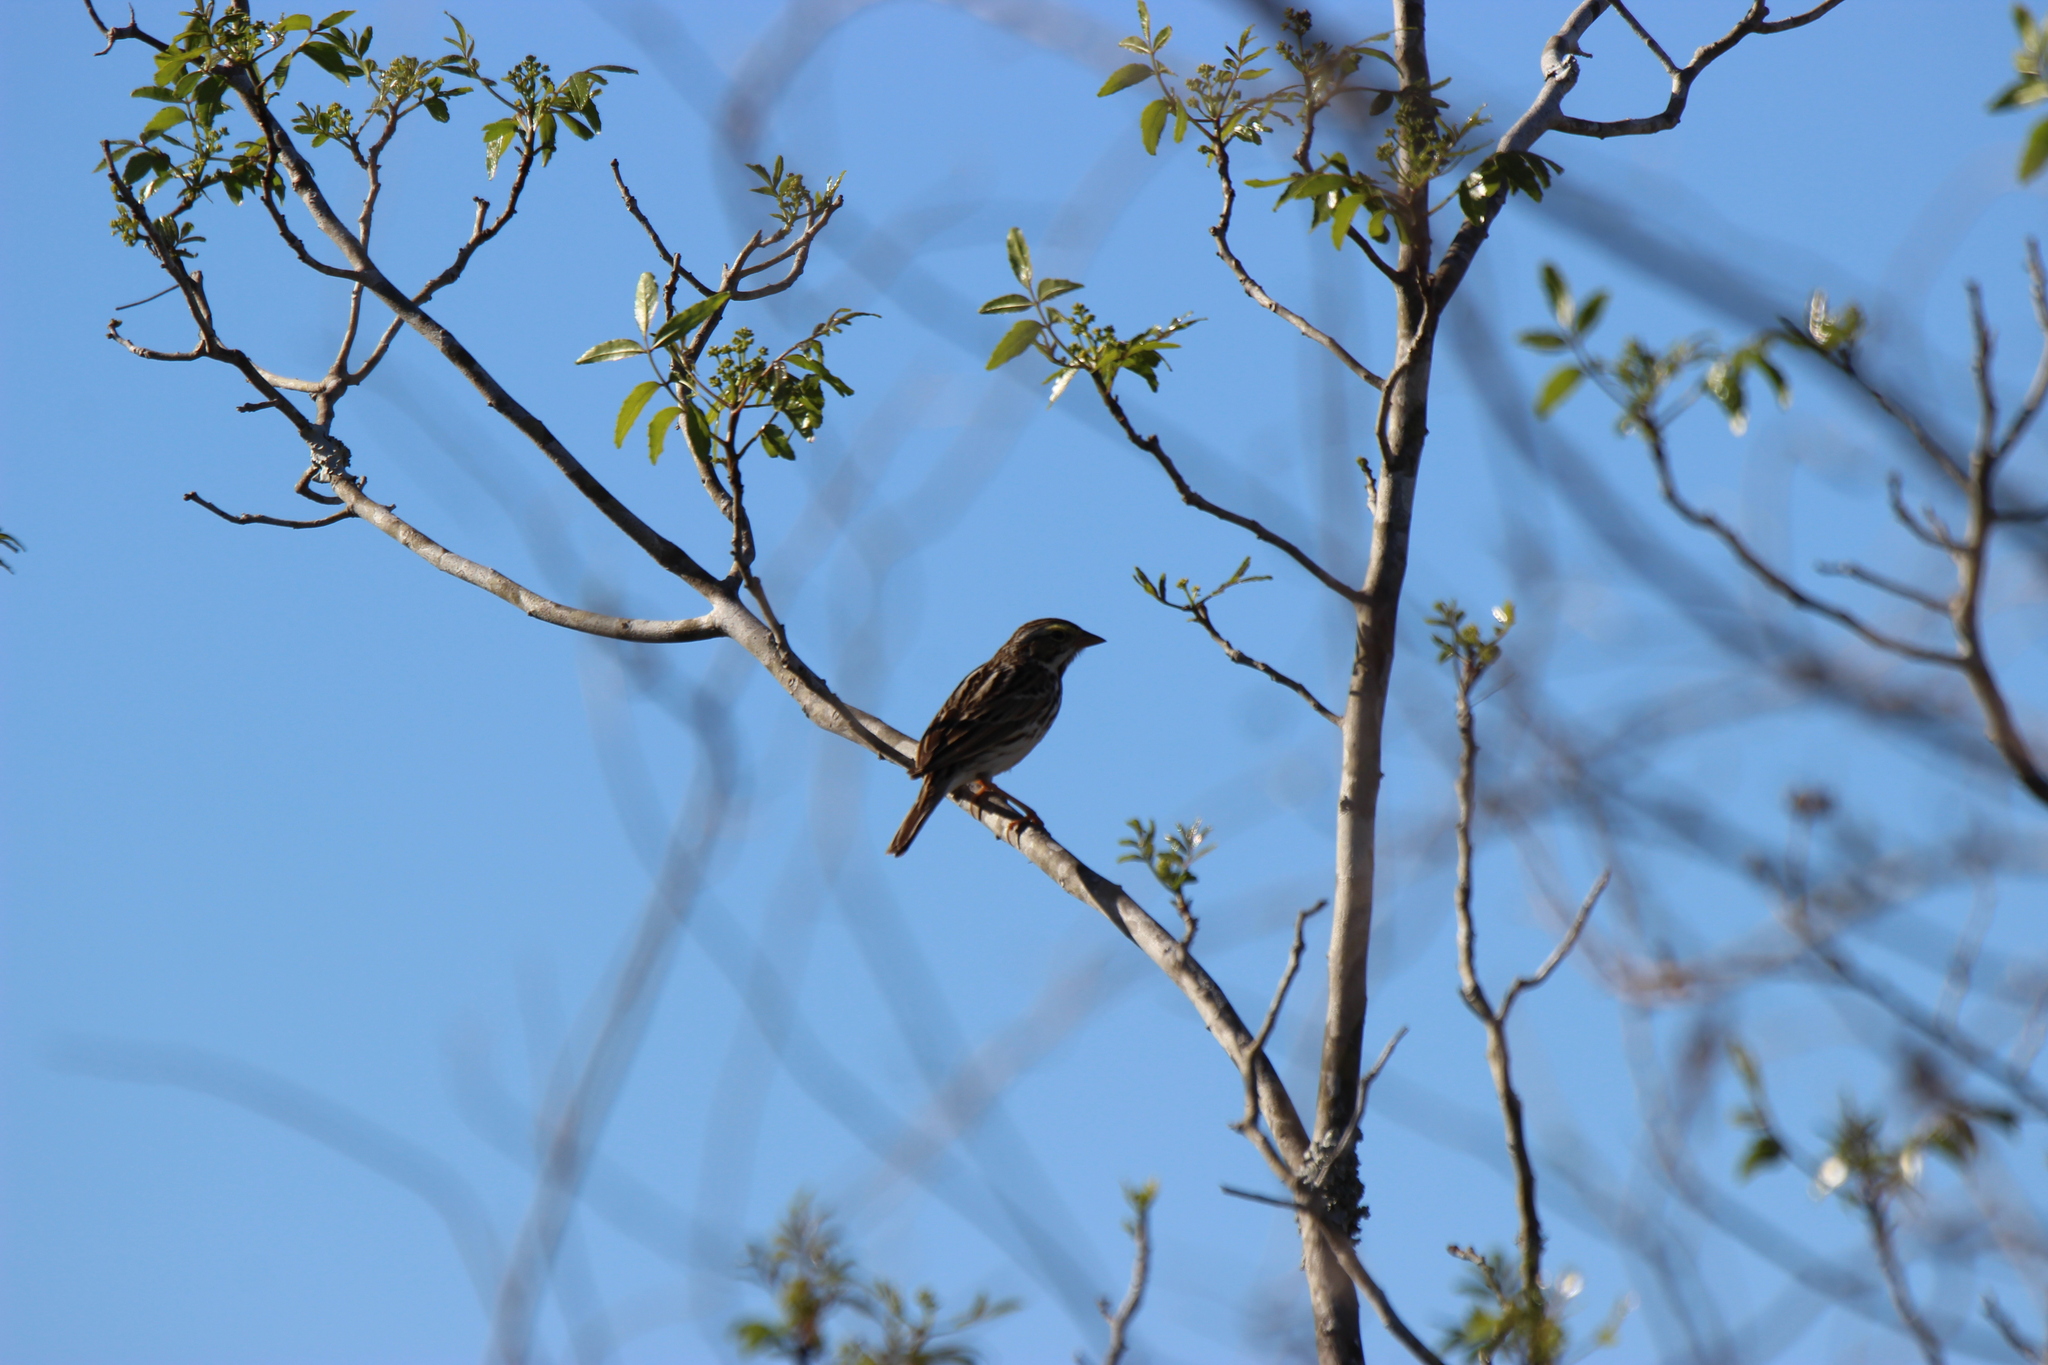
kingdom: Animalia
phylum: Chordata
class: Aves
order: Passeriformes
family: Passerellidae
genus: Passerculus
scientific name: Passerculus sandwichensis
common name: Savannah sparrow
